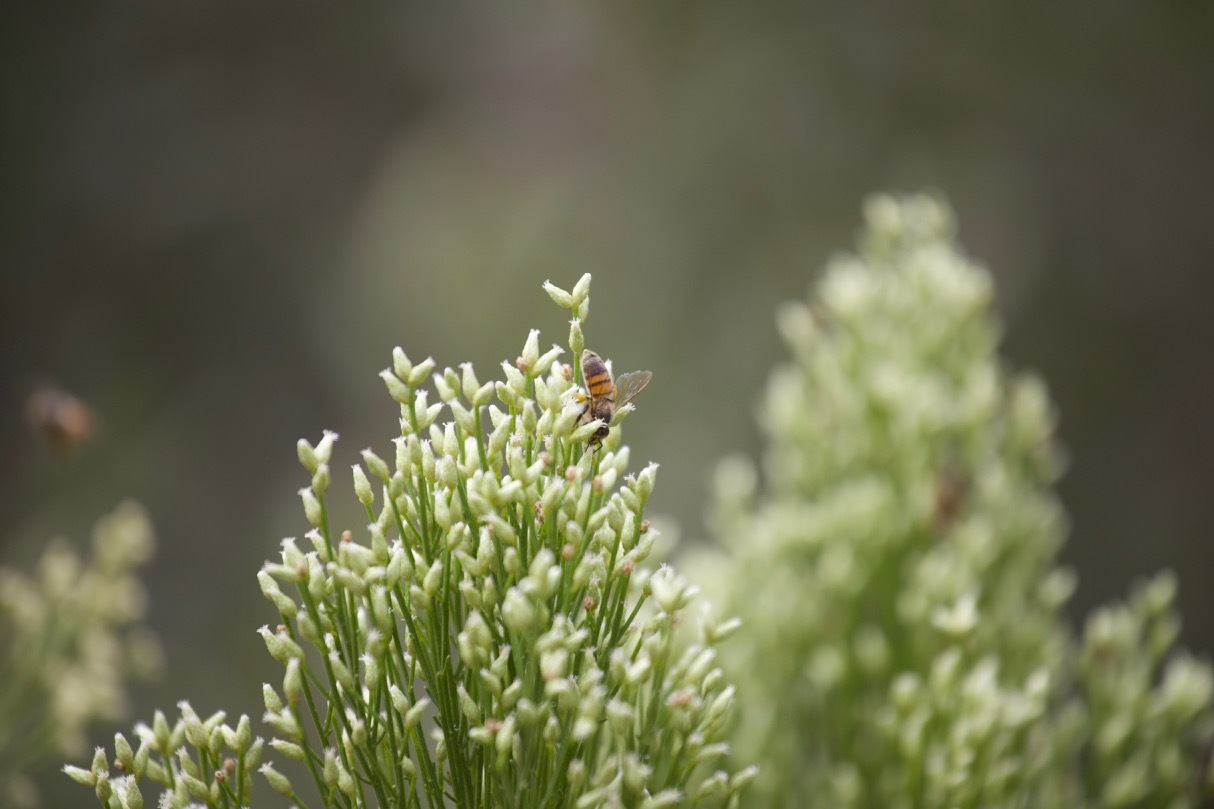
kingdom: Animalia
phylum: Arthropoda
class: Insecta
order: Hymenoptera
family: Apidae
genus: Apis
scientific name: Apis mellifera
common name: Honey bee
